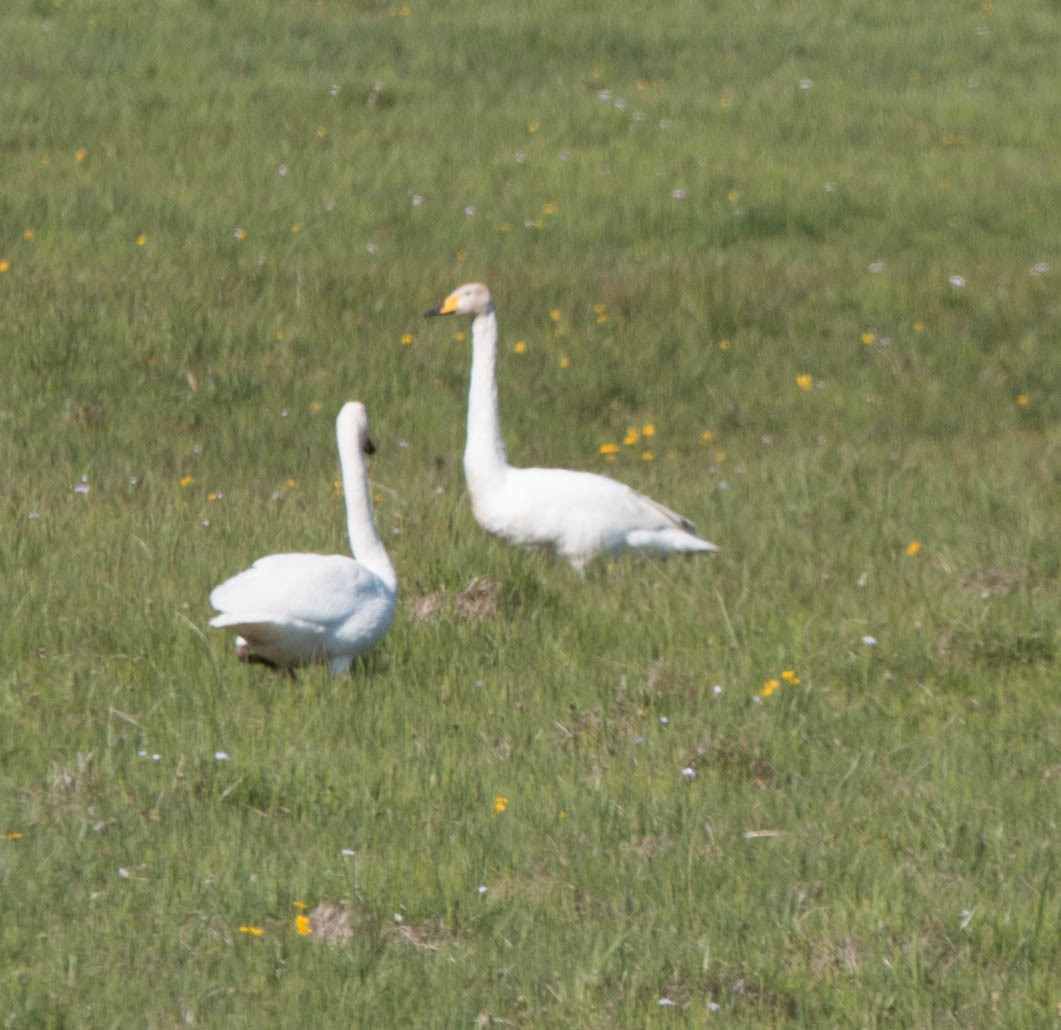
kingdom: Animalia
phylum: Chordata
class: Aves
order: Anseriformes
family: Anatidae
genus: Cygnus
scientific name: Cygnus cygnus
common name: Whooper swan
